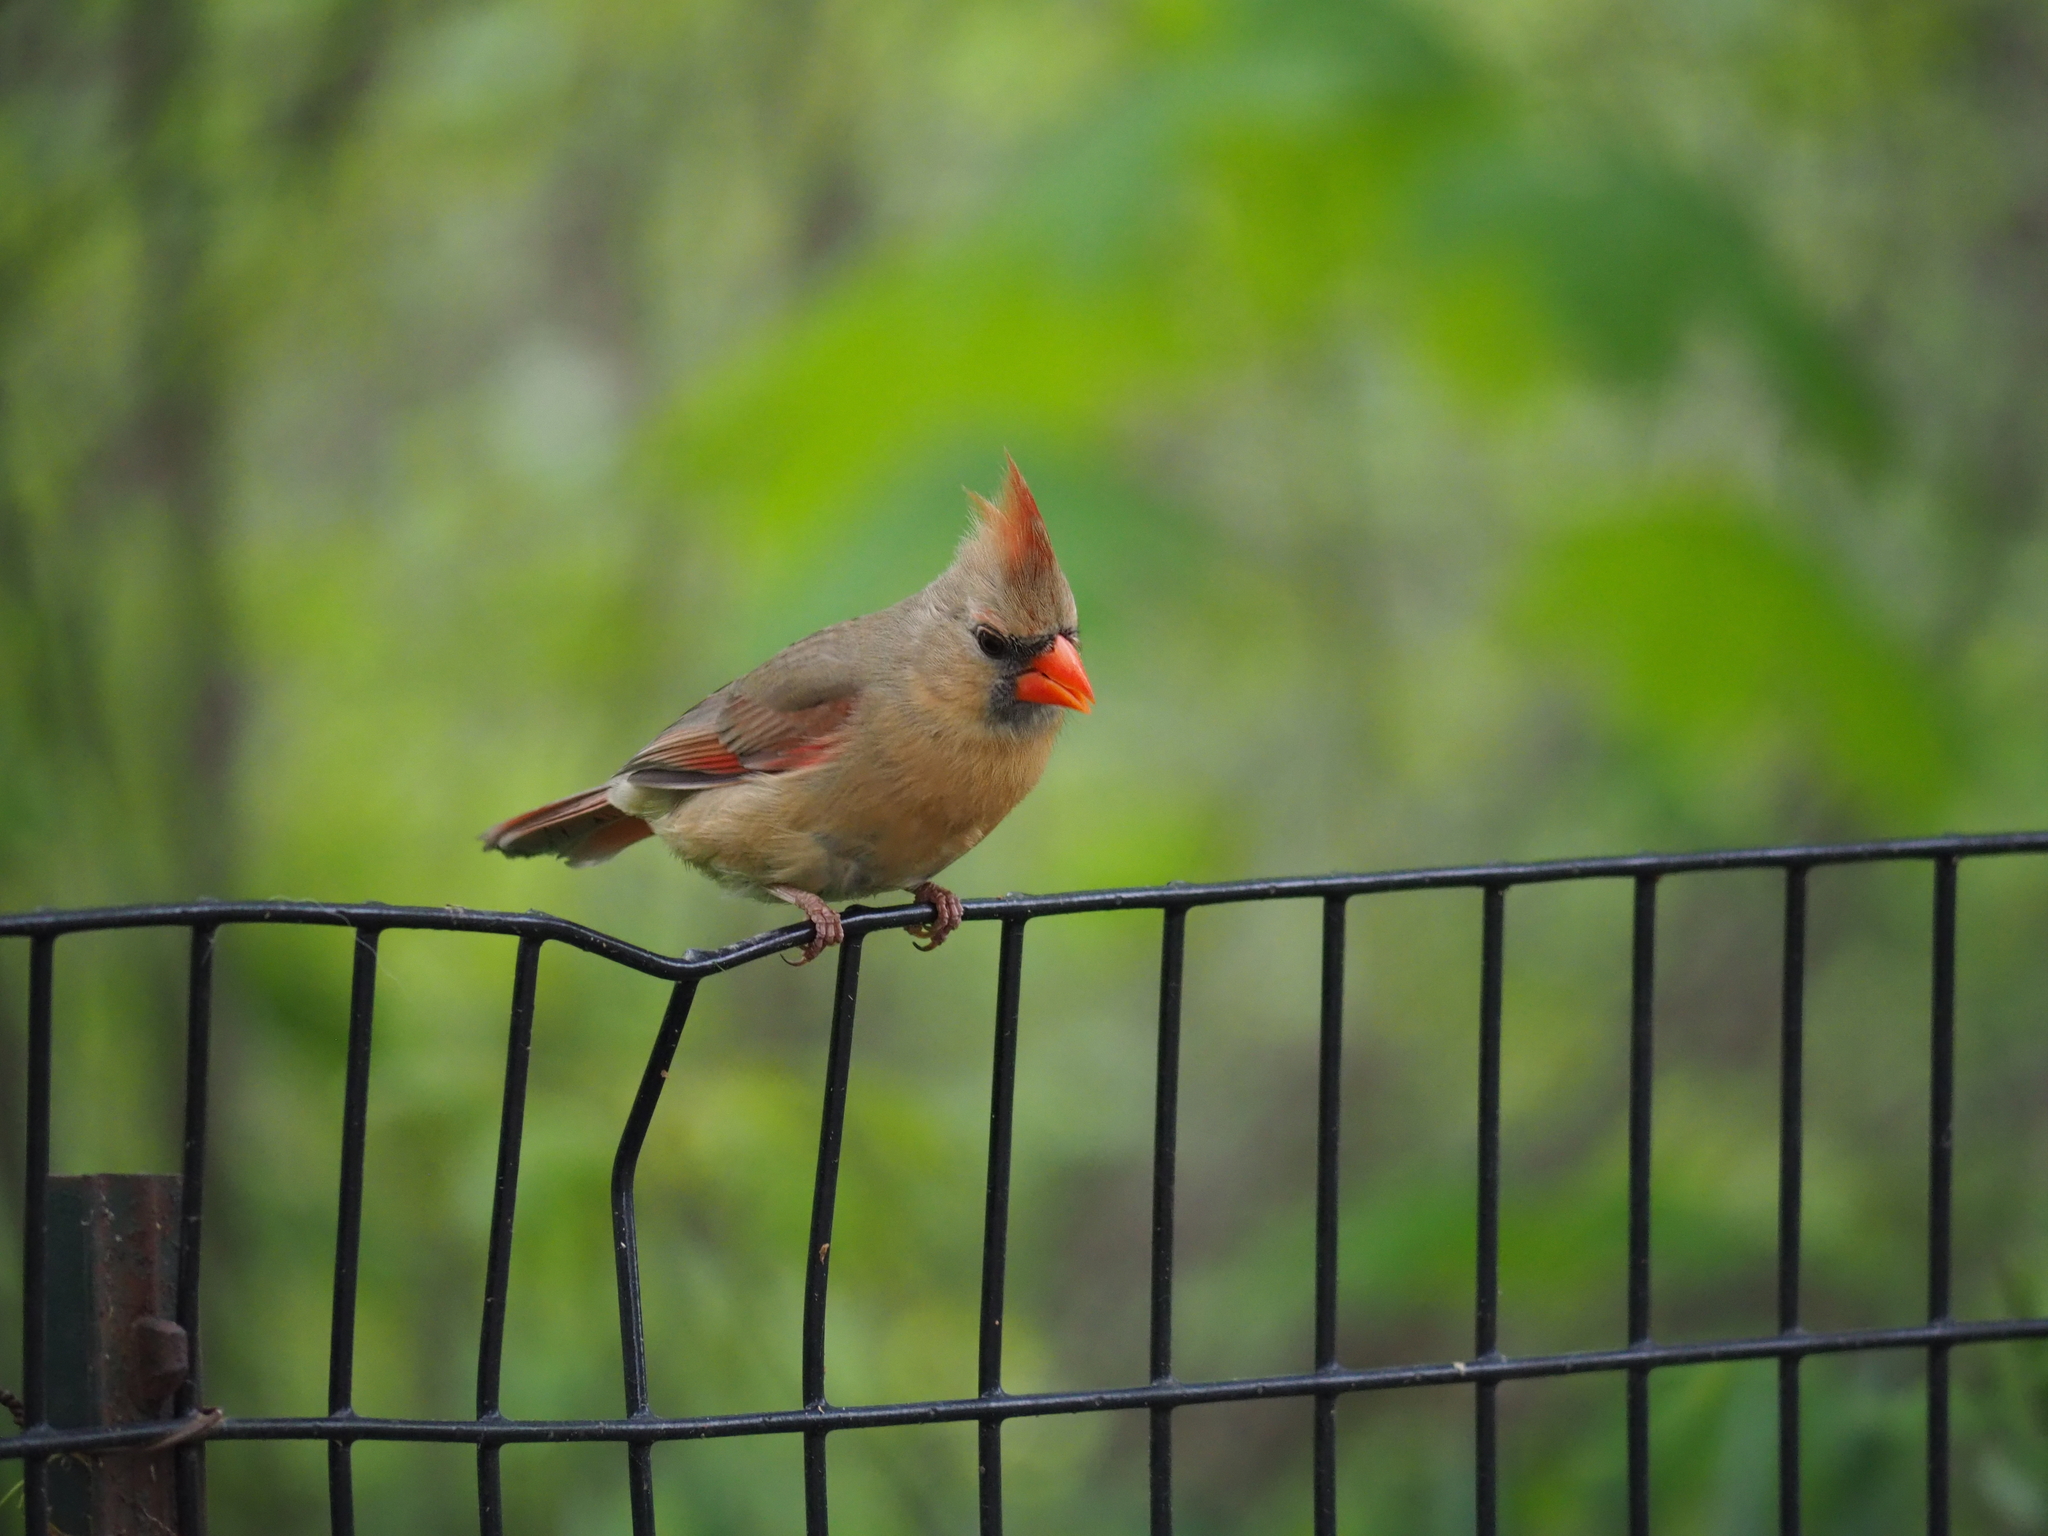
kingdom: Animalia
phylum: Chordata
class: Aves
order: Passeriformes
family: Cardinalidae
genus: Cardinalis
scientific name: Cardinalis cardinalis
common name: Northern cardinal
